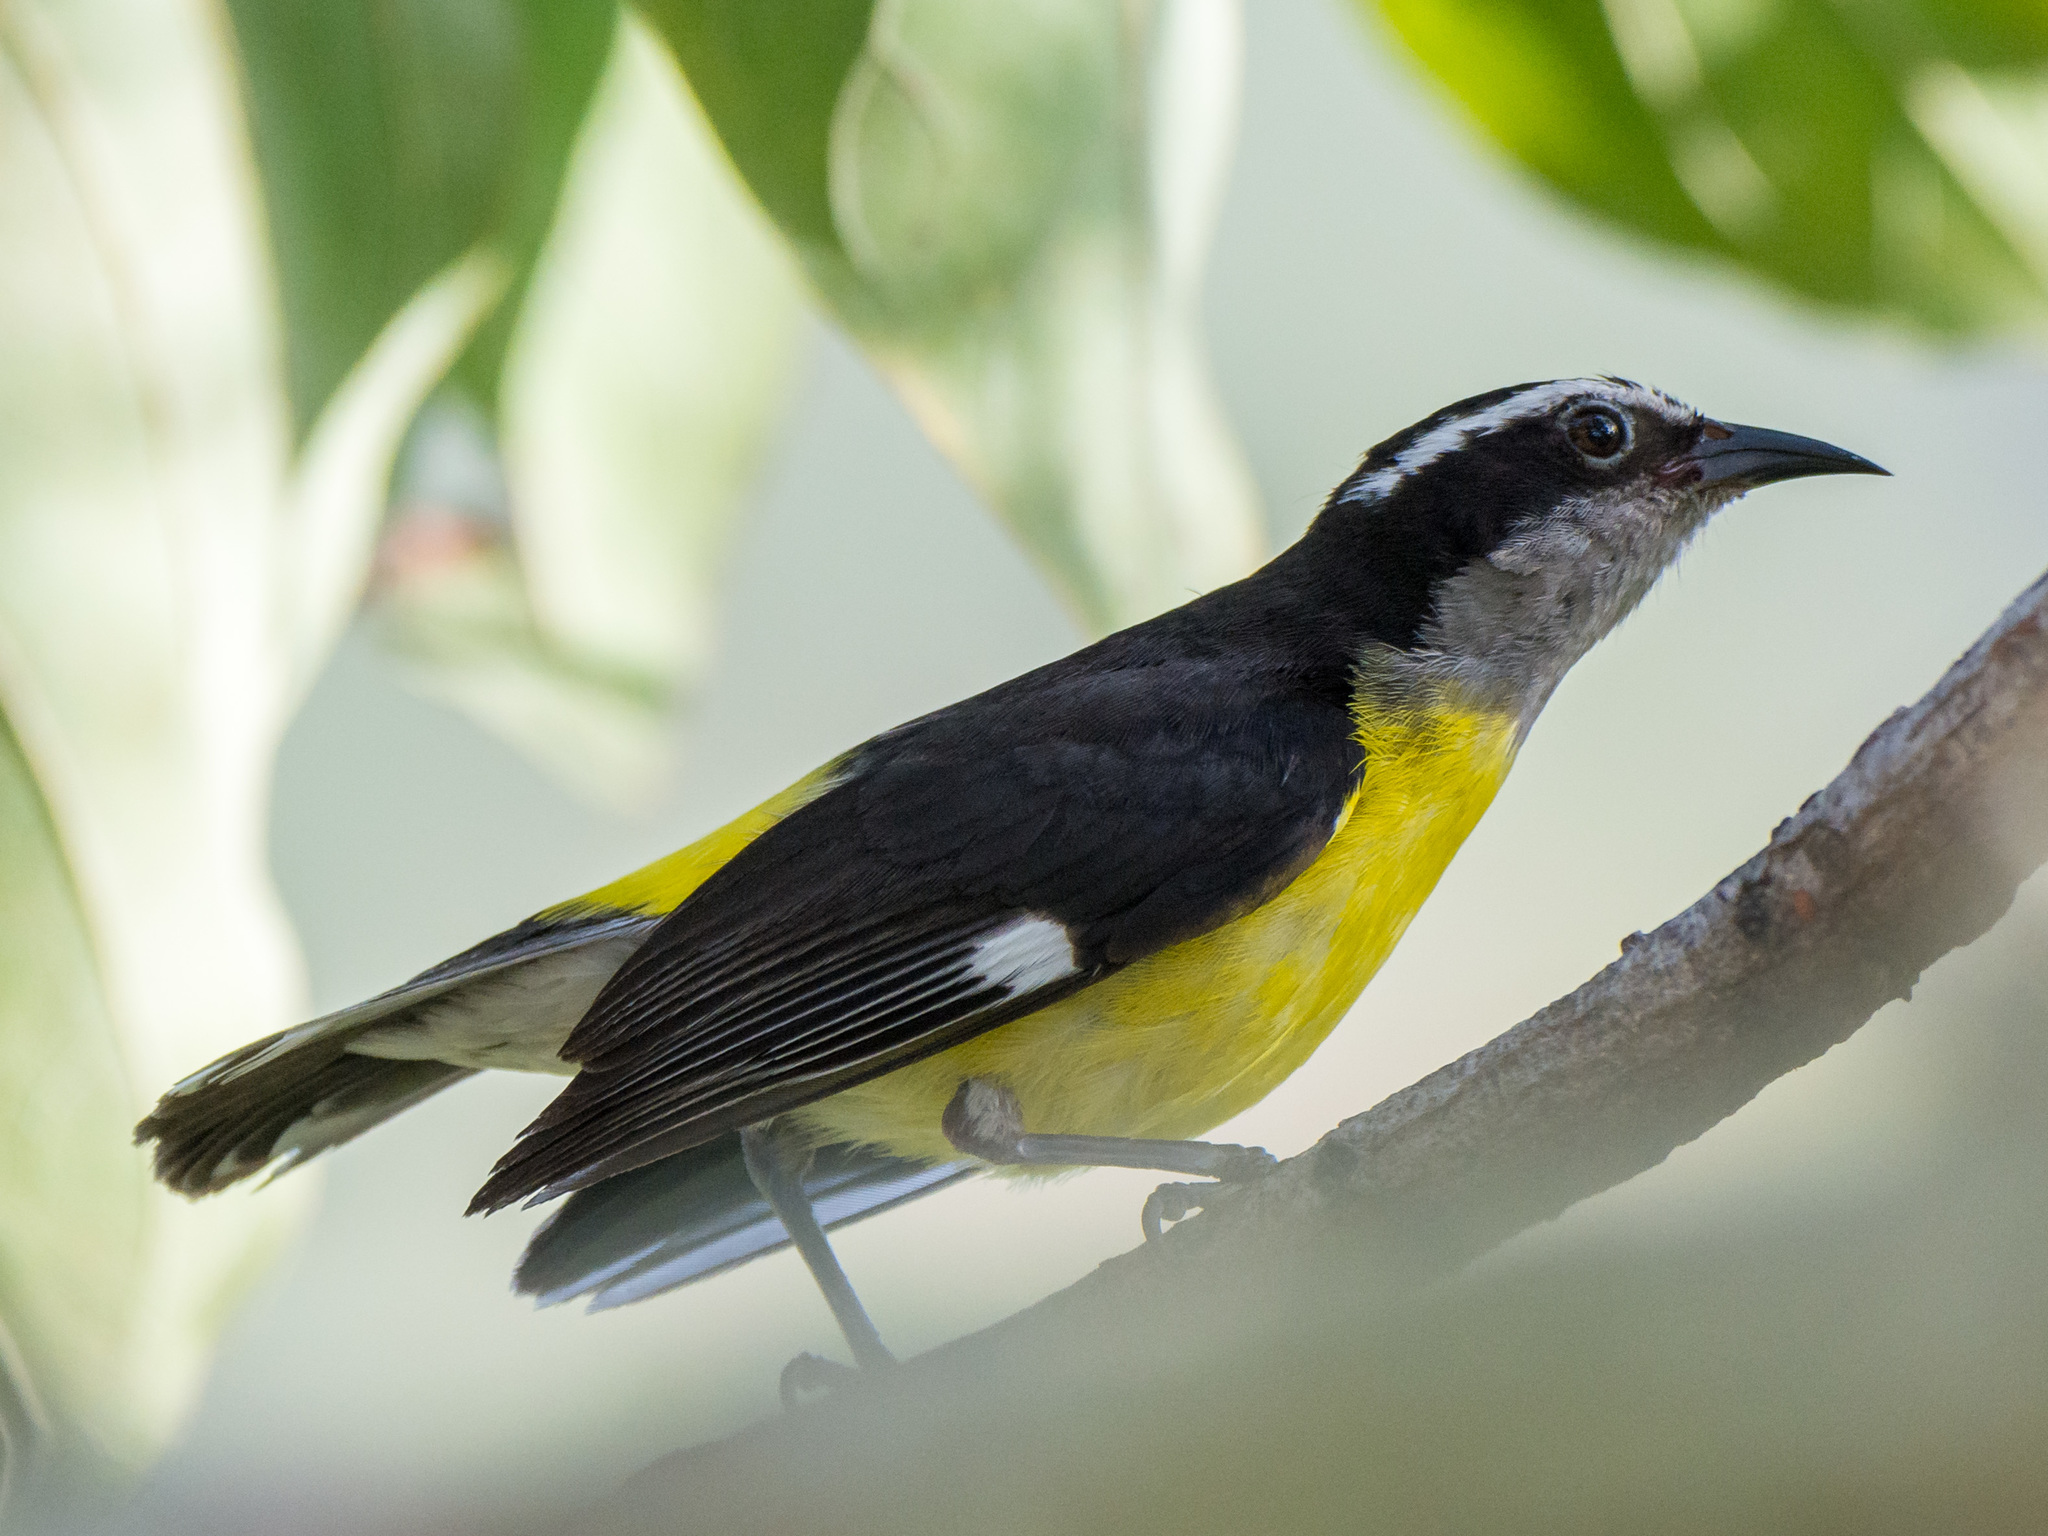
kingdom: Animalia
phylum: Chordata
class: Aves
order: Passeriformes
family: Thraupidae
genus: Coereba
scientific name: Coereba flaveola
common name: Bananaquit
